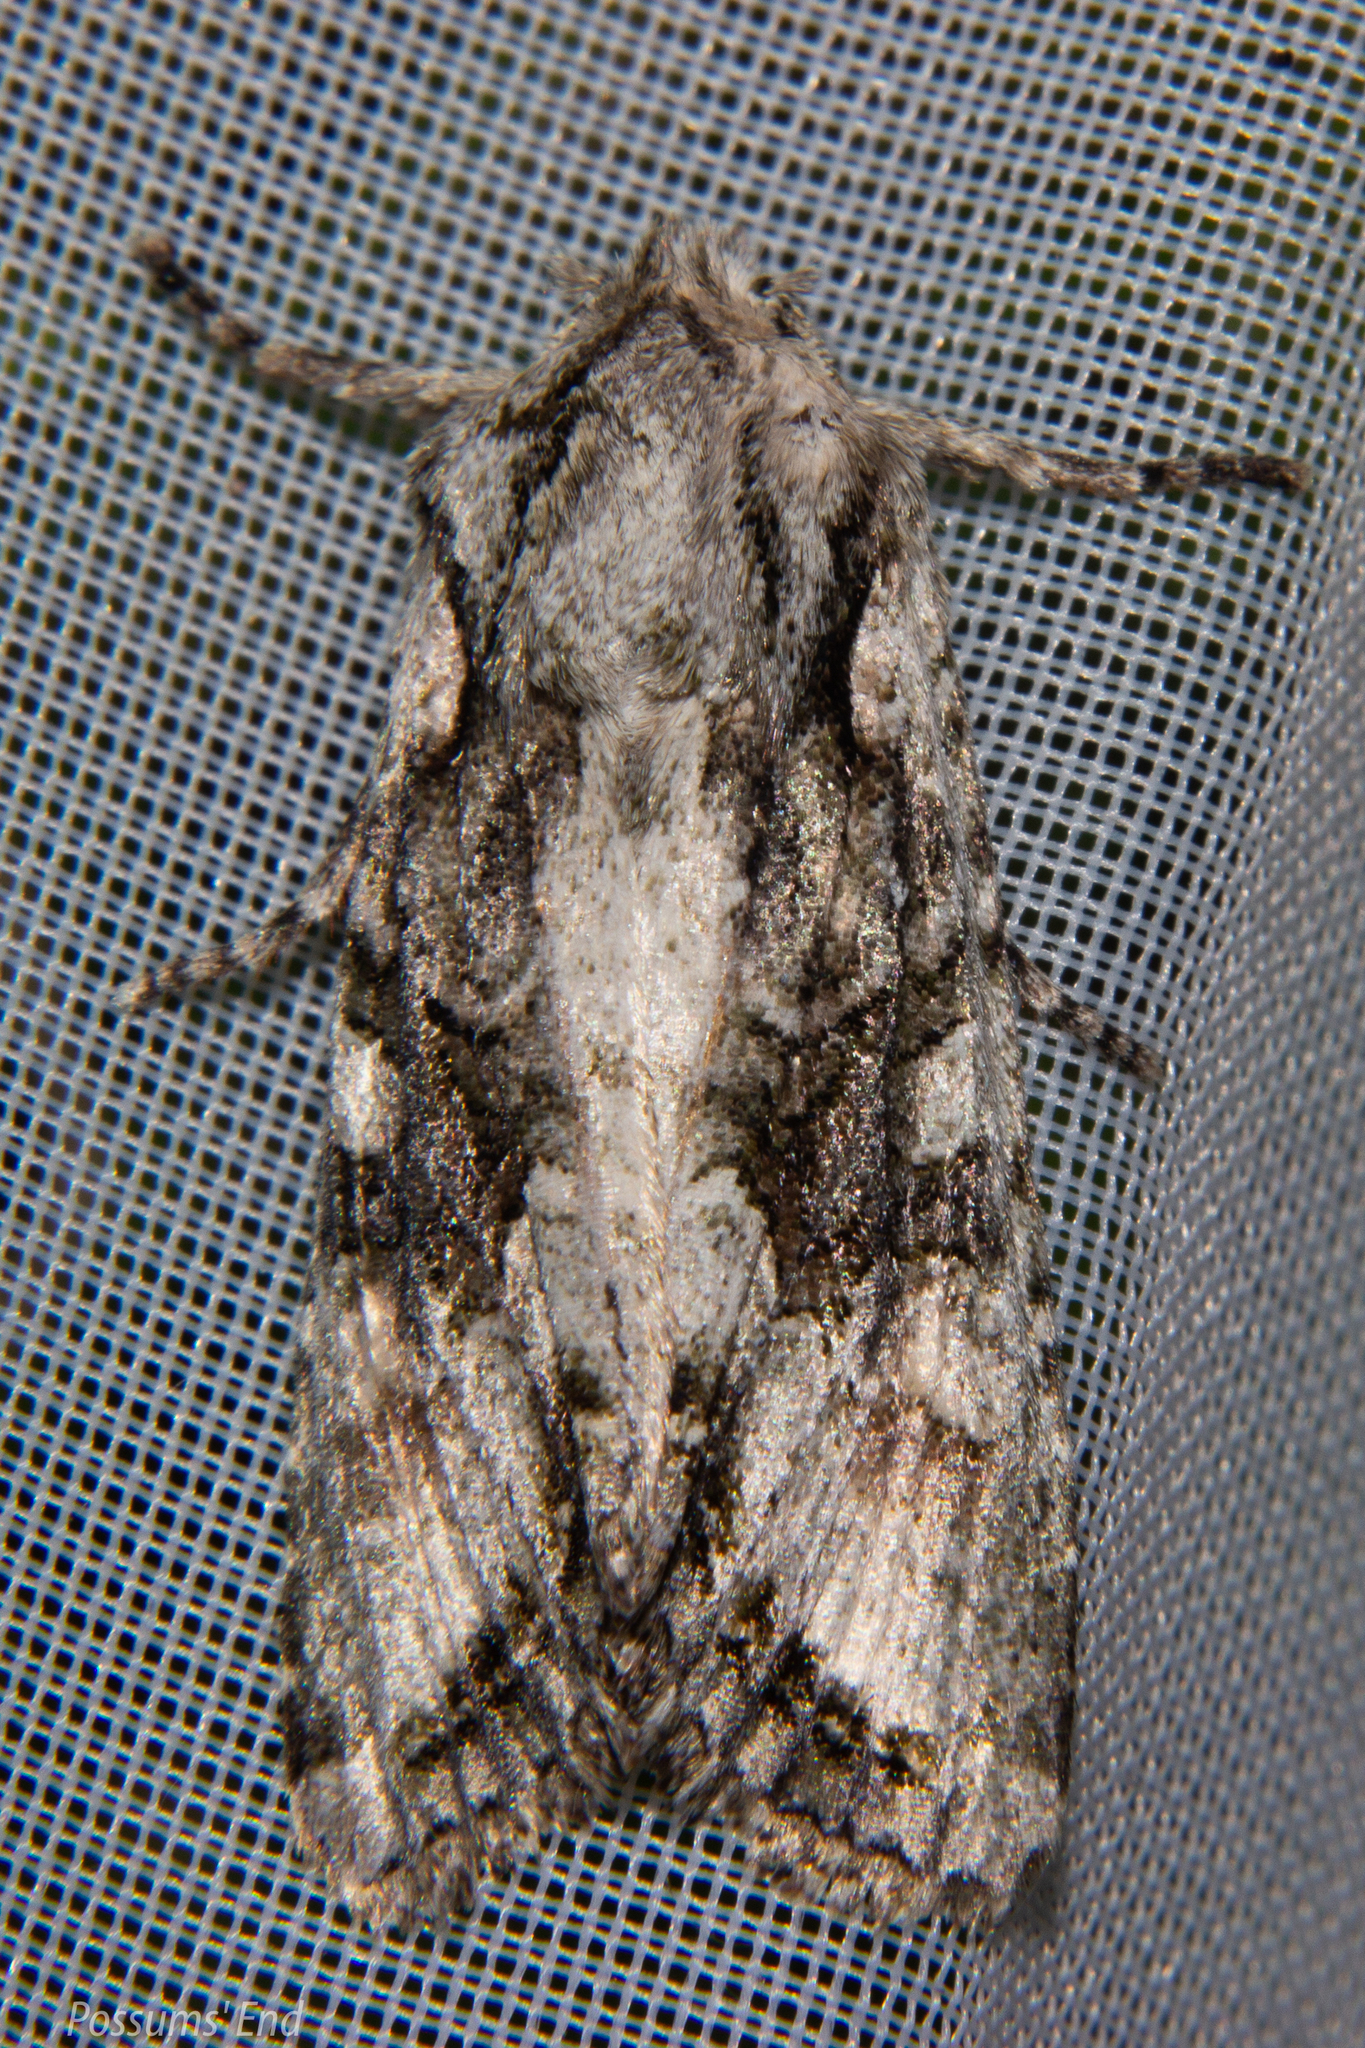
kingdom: Animalia
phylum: Arthropoda
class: Insecta
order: Lepidoptera
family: Noctuidae
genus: Ichneutica
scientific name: Ichneutica mutans
